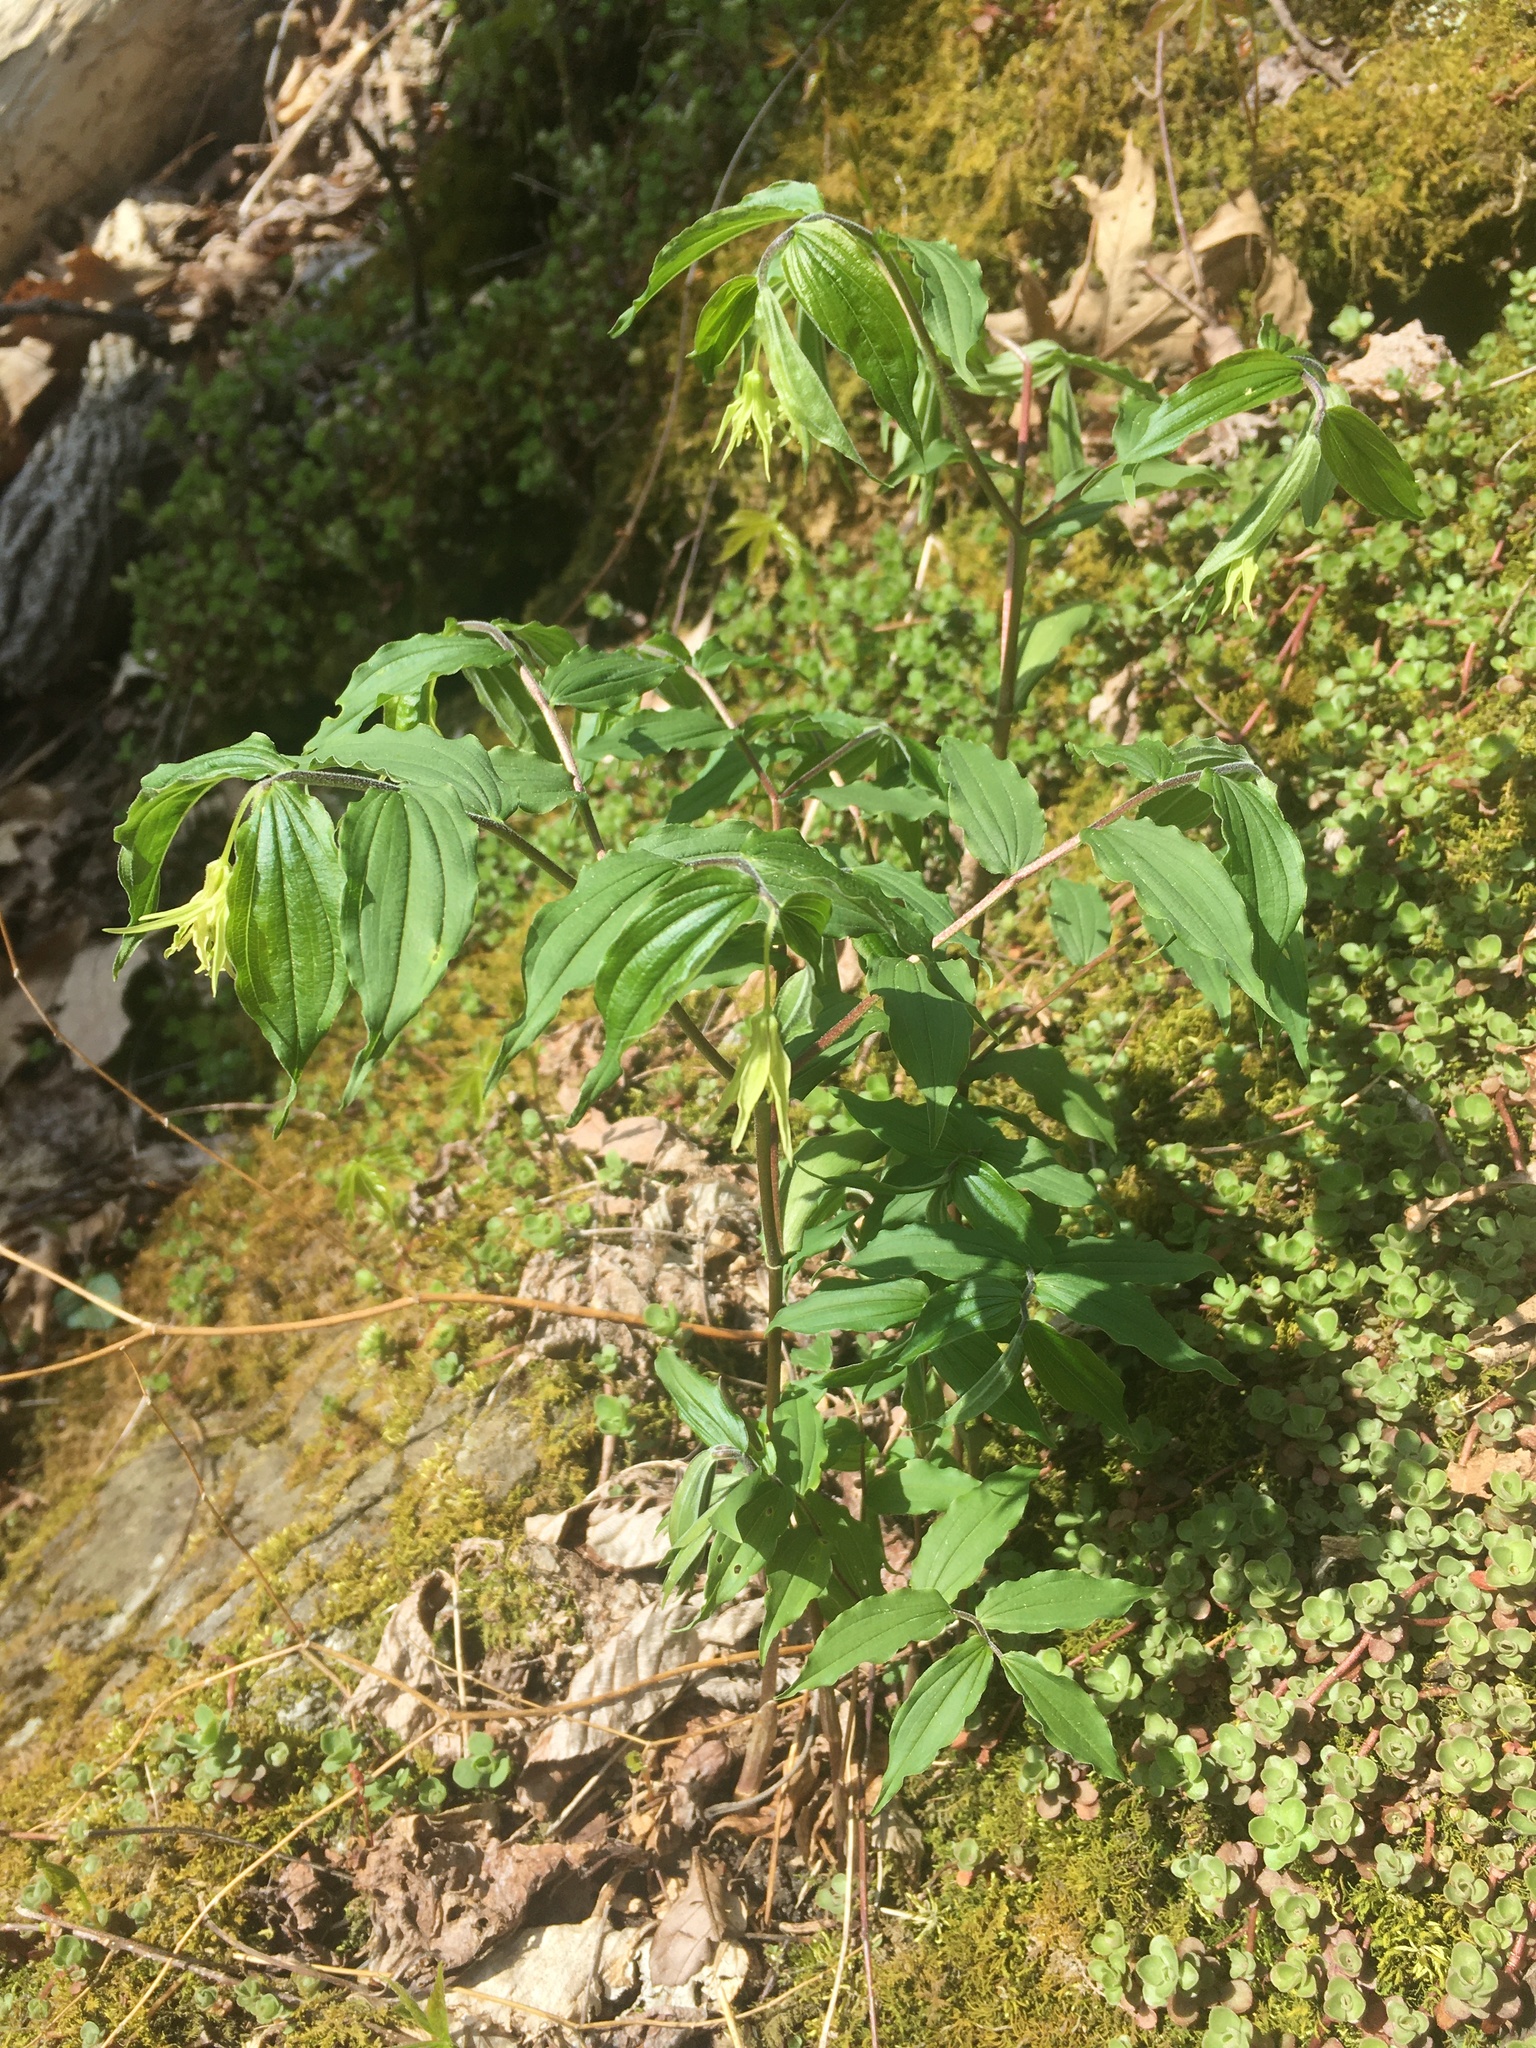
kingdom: Plantae
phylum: Tracheophyta
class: Liliopsida
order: Liliales
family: Liliaceae
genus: Prosartes
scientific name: Prosartes lanuginosa
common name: Hairy mandarin
